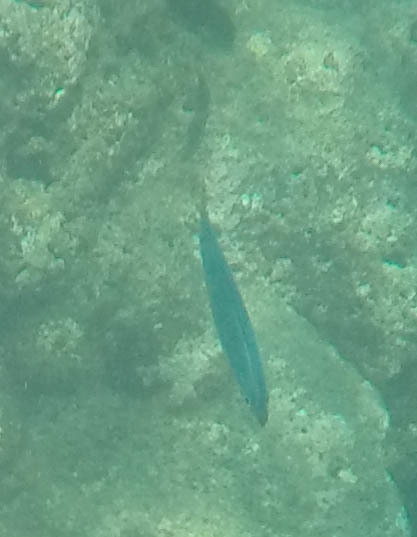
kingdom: Animalia
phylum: Chordata
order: Perciformes
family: Carangidae
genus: Decapterus
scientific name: Decapterus macarellus
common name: Mackerel scad
